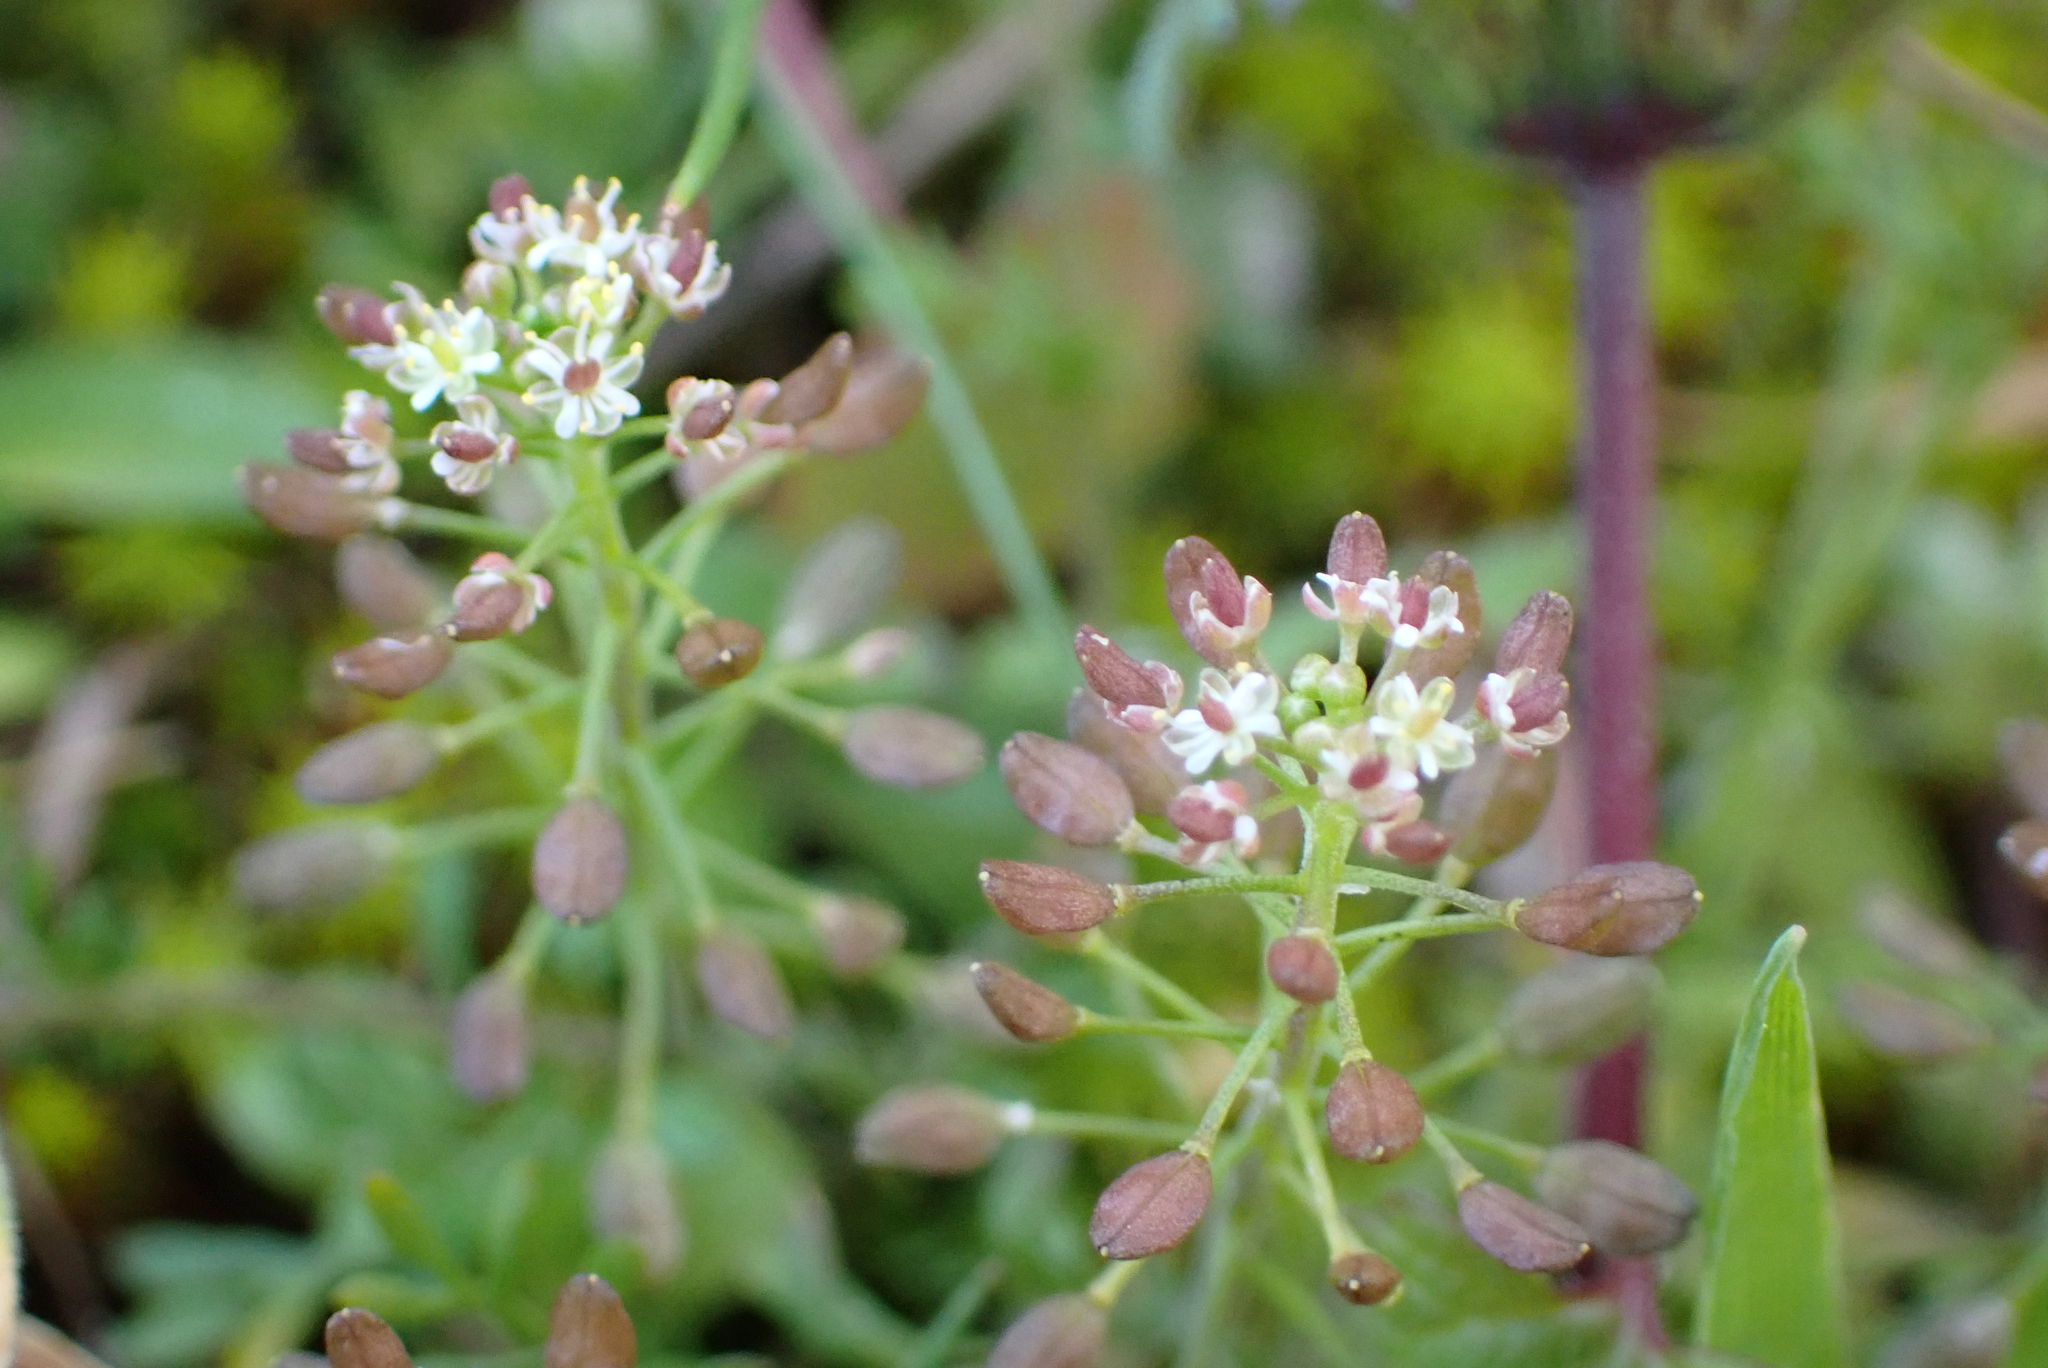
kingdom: Plantae
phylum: Tracheophyta
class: Magnoliopsida
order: Brassicales
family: Brassicaceae
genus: Hornungia
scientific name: Hornungia petraea
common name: Hutchinsia
